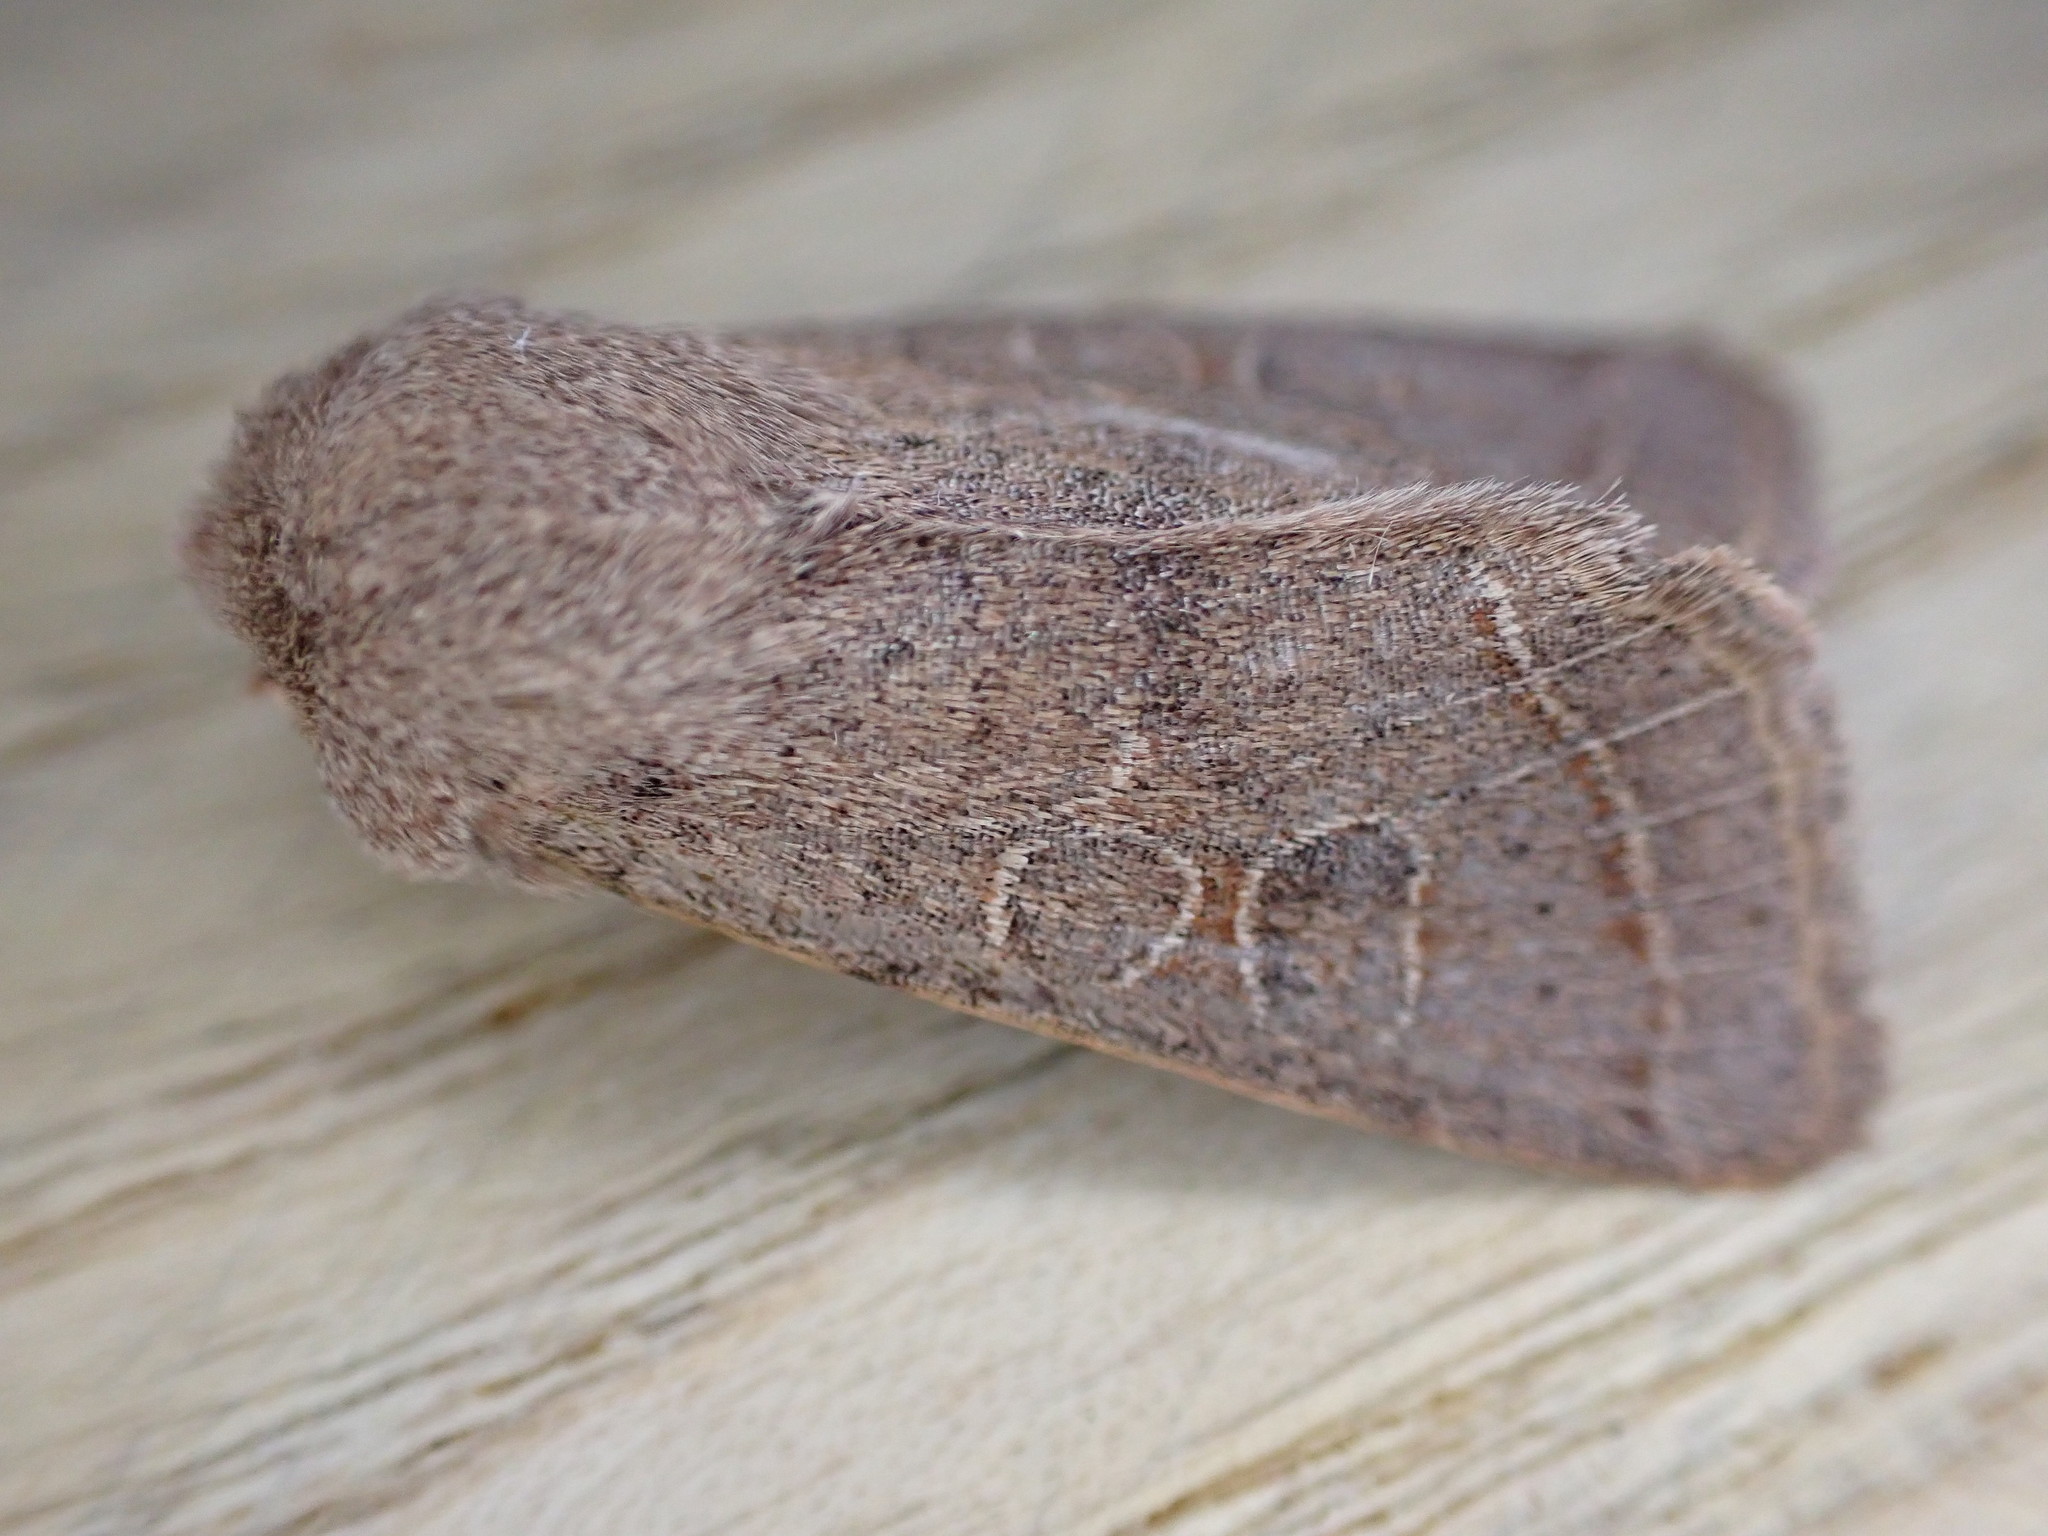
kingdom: Animalia
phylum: Arthropoda
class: Insecta
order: Lepidoptera
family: Noctuidae
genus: Orthosia
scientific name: Orthosia cerasi
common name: Common quaker
